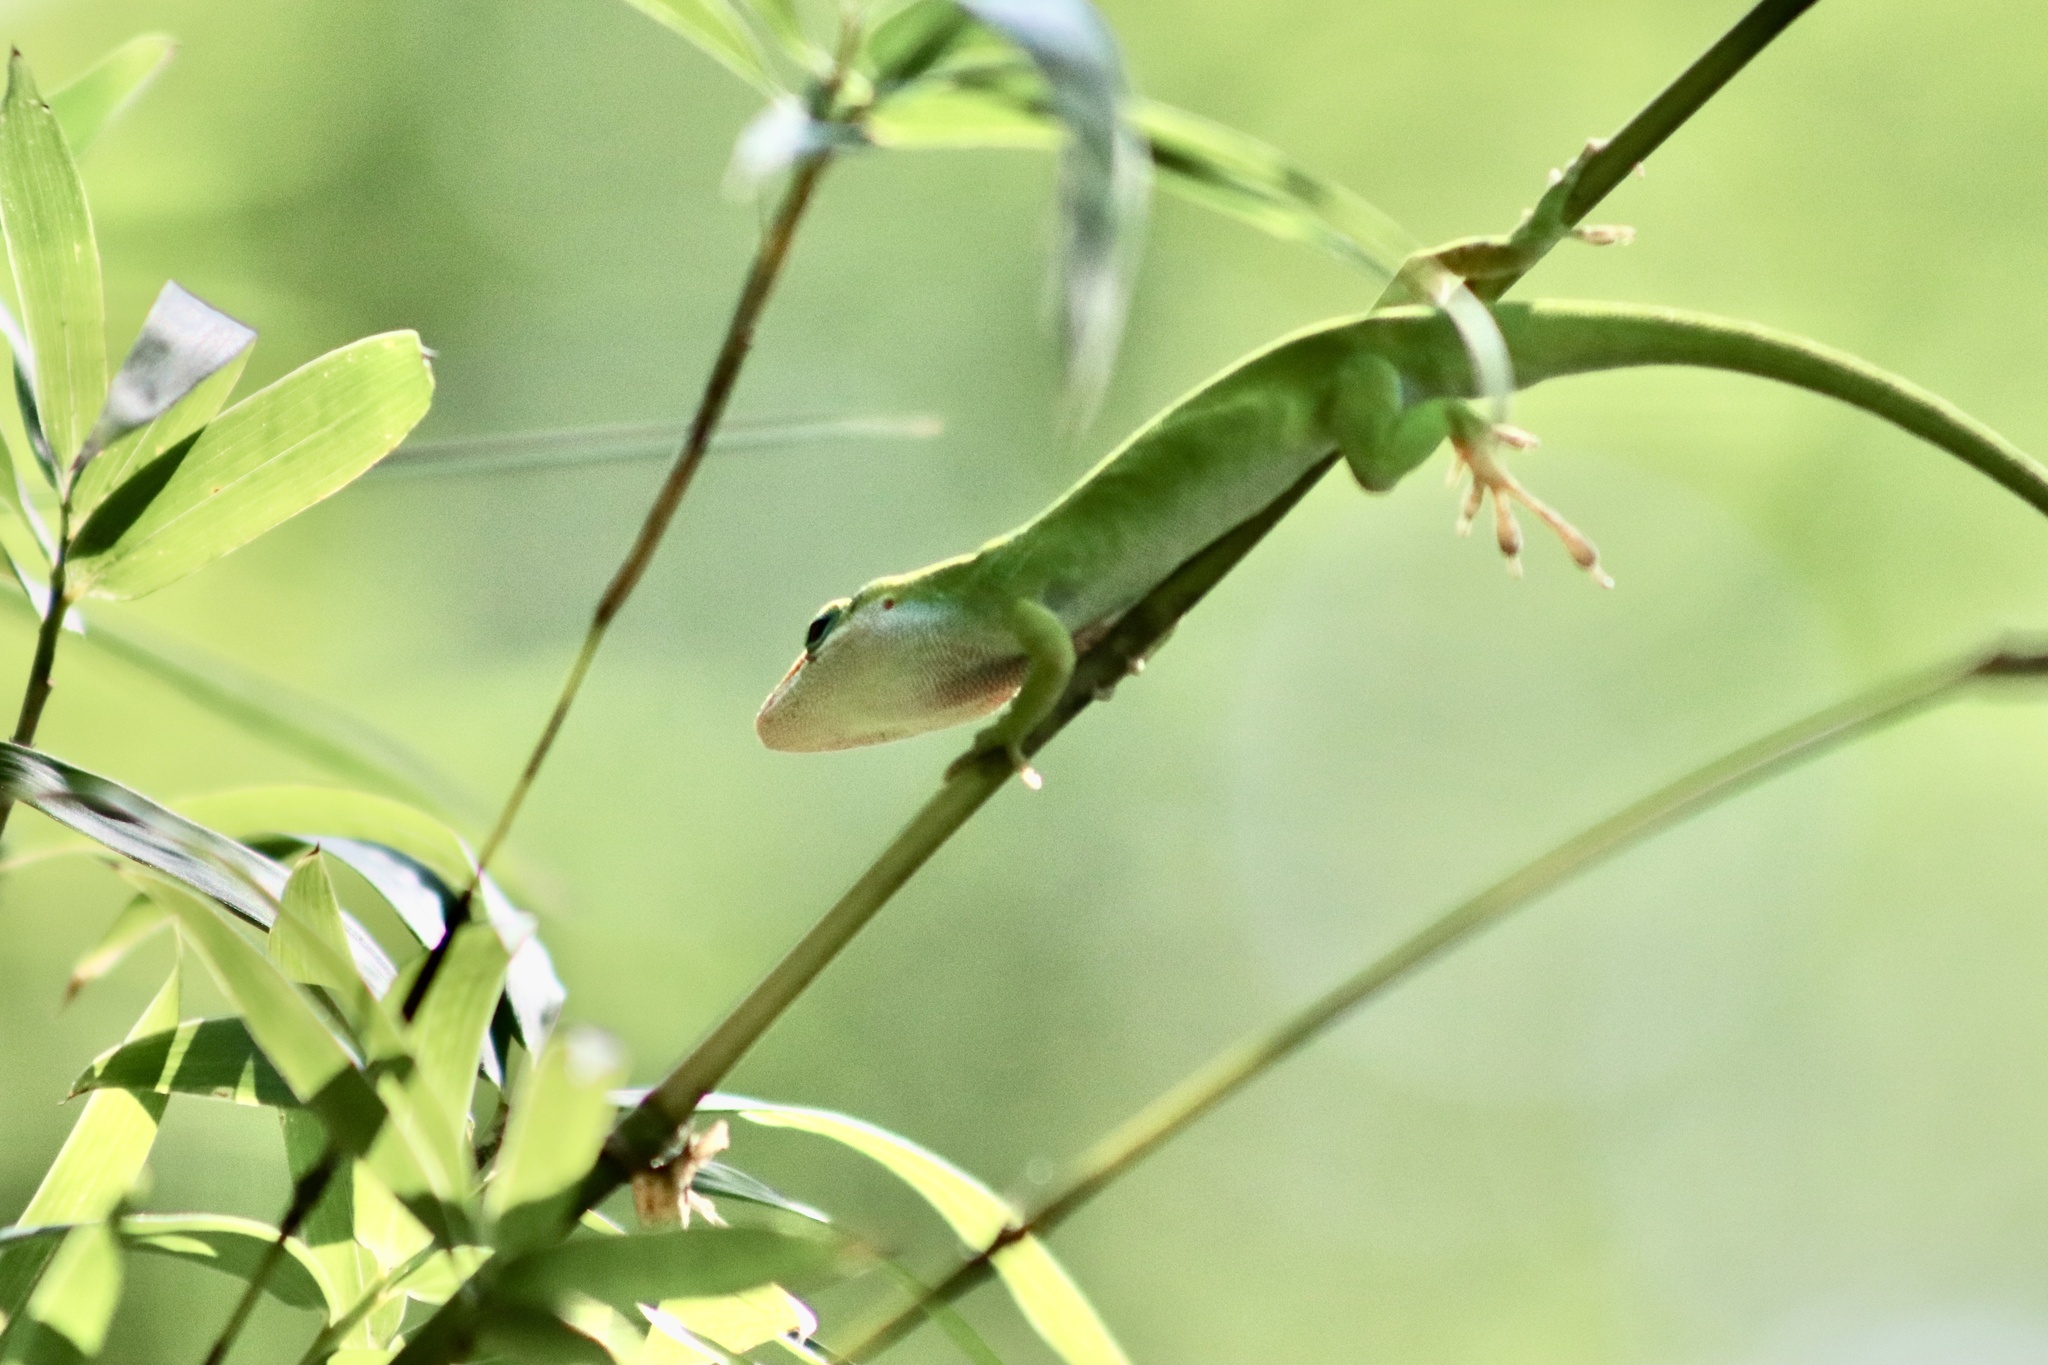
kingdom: Animalia
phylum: Chordata
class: Squamata
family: Dactyloidae
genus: Anolis
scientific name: Anolis carolinensis
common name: Green anole
